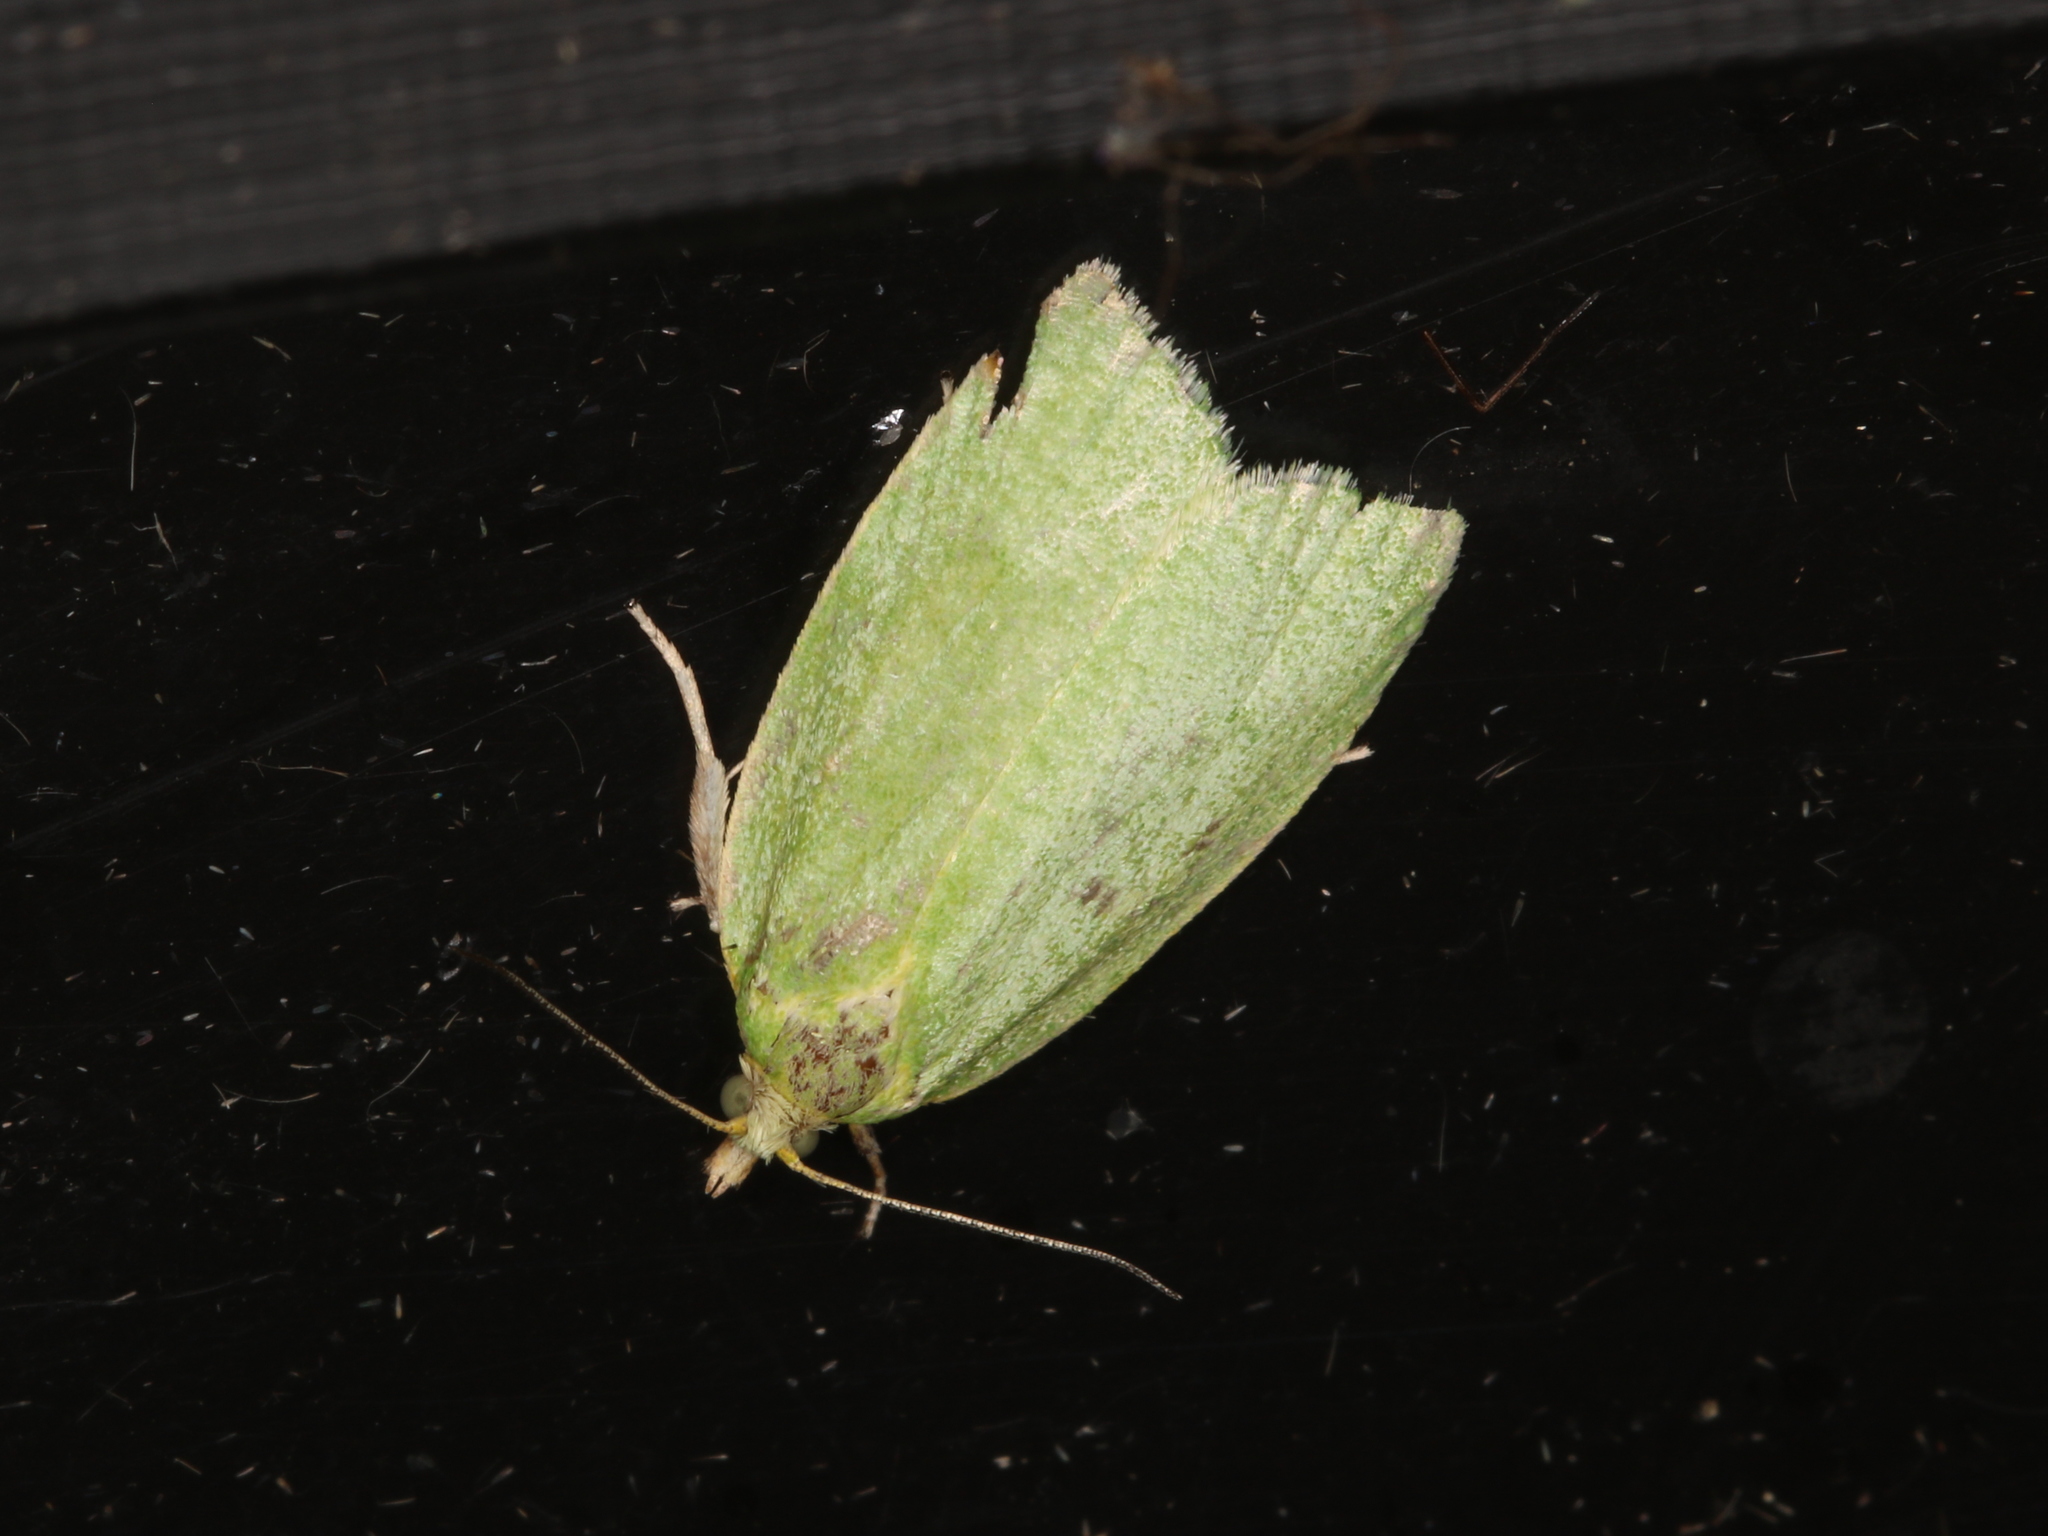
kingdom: Animalia
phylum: Arthropoda
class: Insecta
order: Lepidoptera
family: Tortricidae
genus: Tortrix
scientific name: Tortrix viridana
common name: Green oak tortrix
